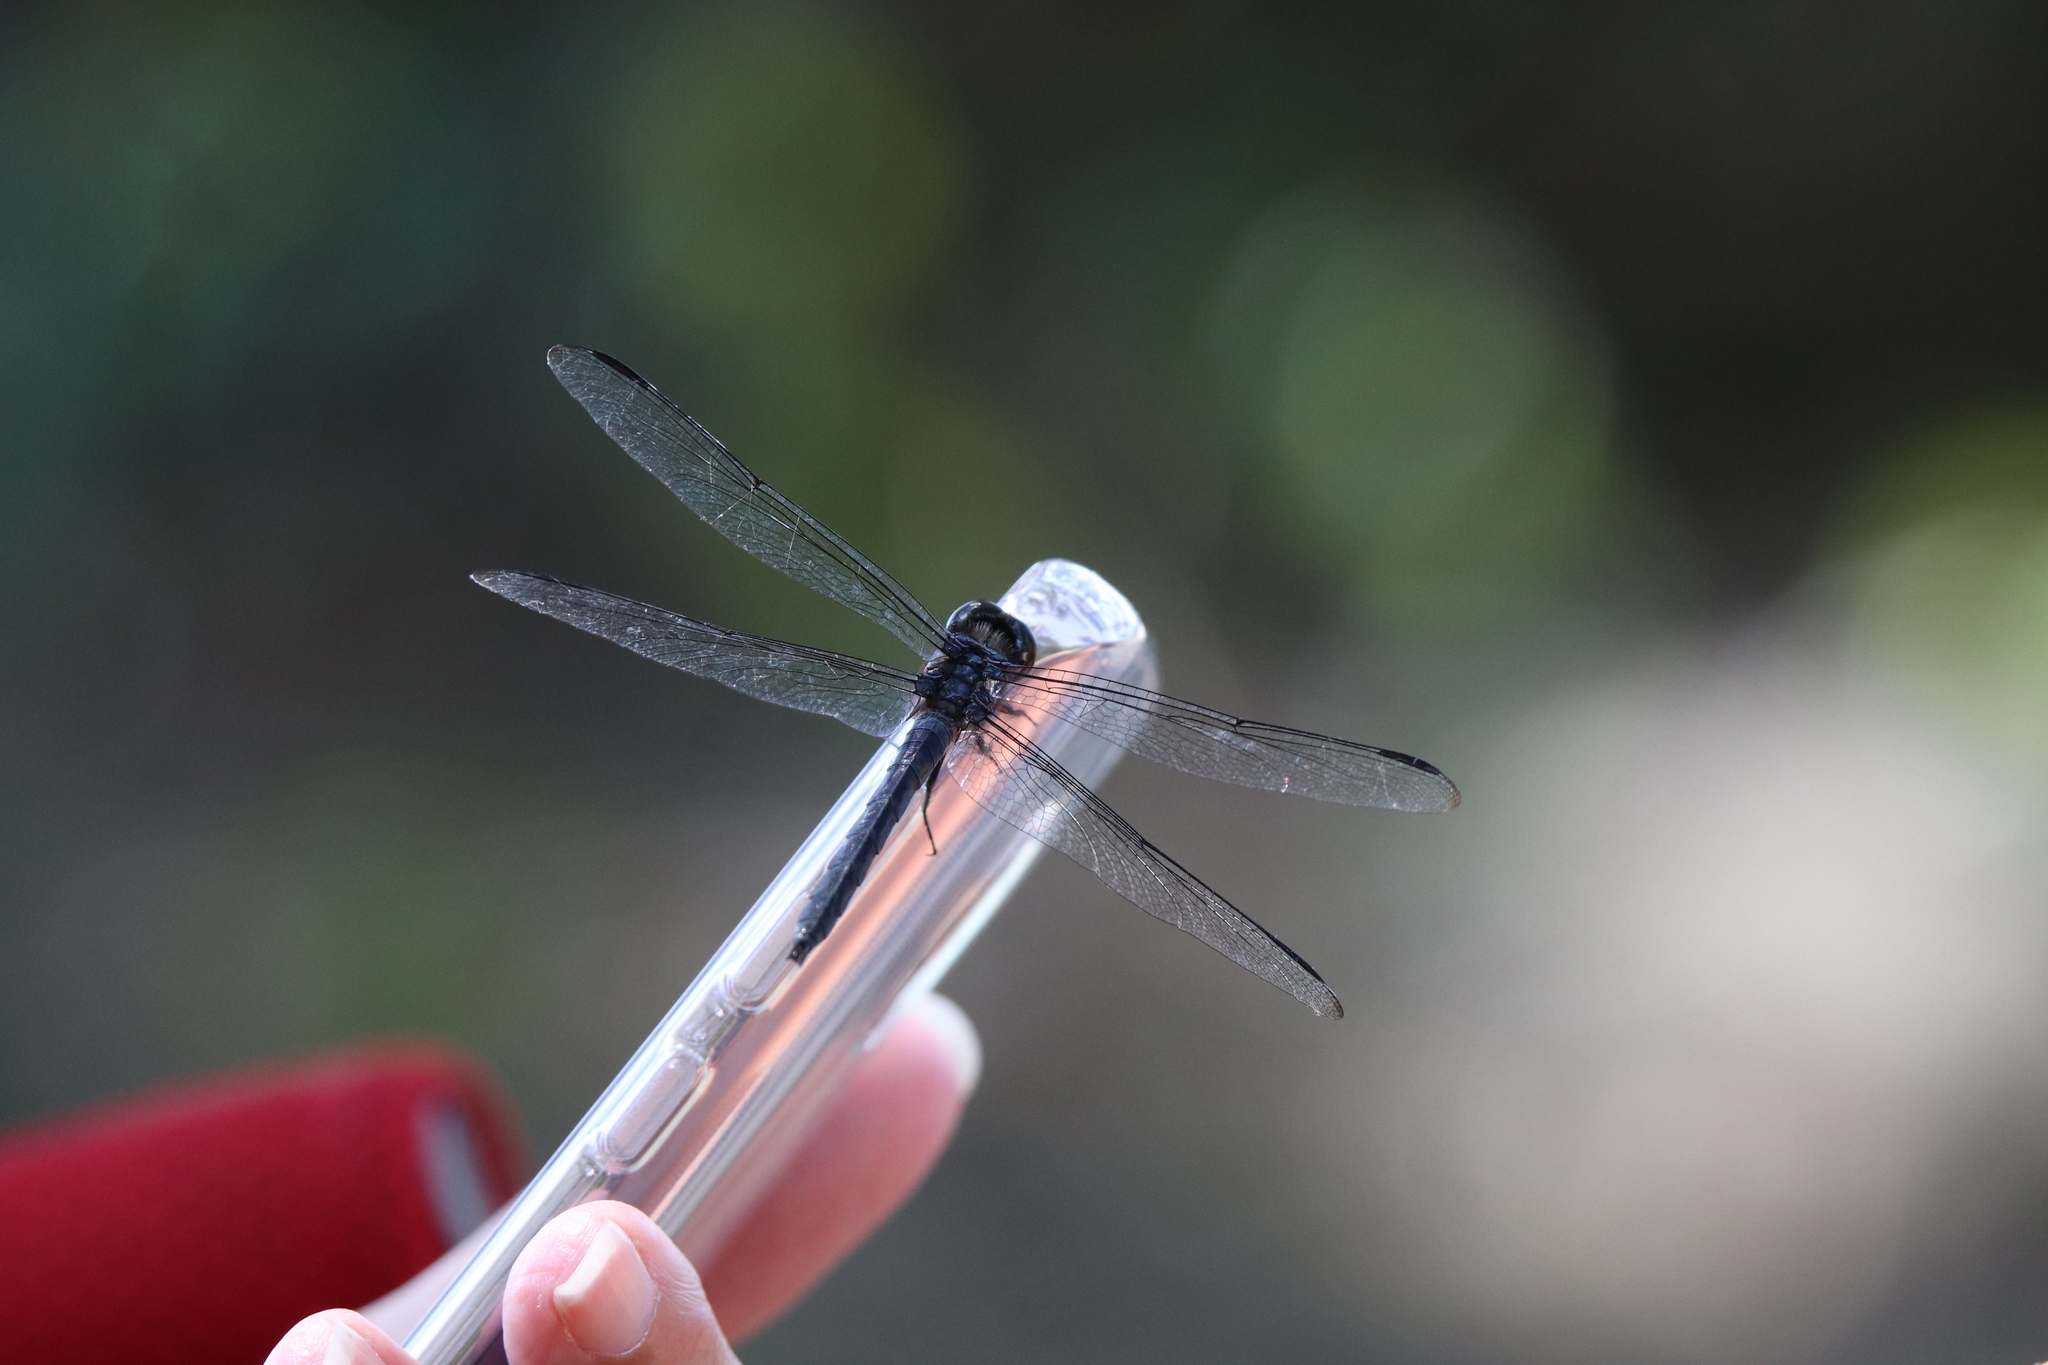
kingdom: Animalia
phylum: Arthropoda
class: Insecta
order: Odonata
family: Libellulidae
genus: Libellula
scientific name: Libellula incesta
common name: Slaty skimmer
